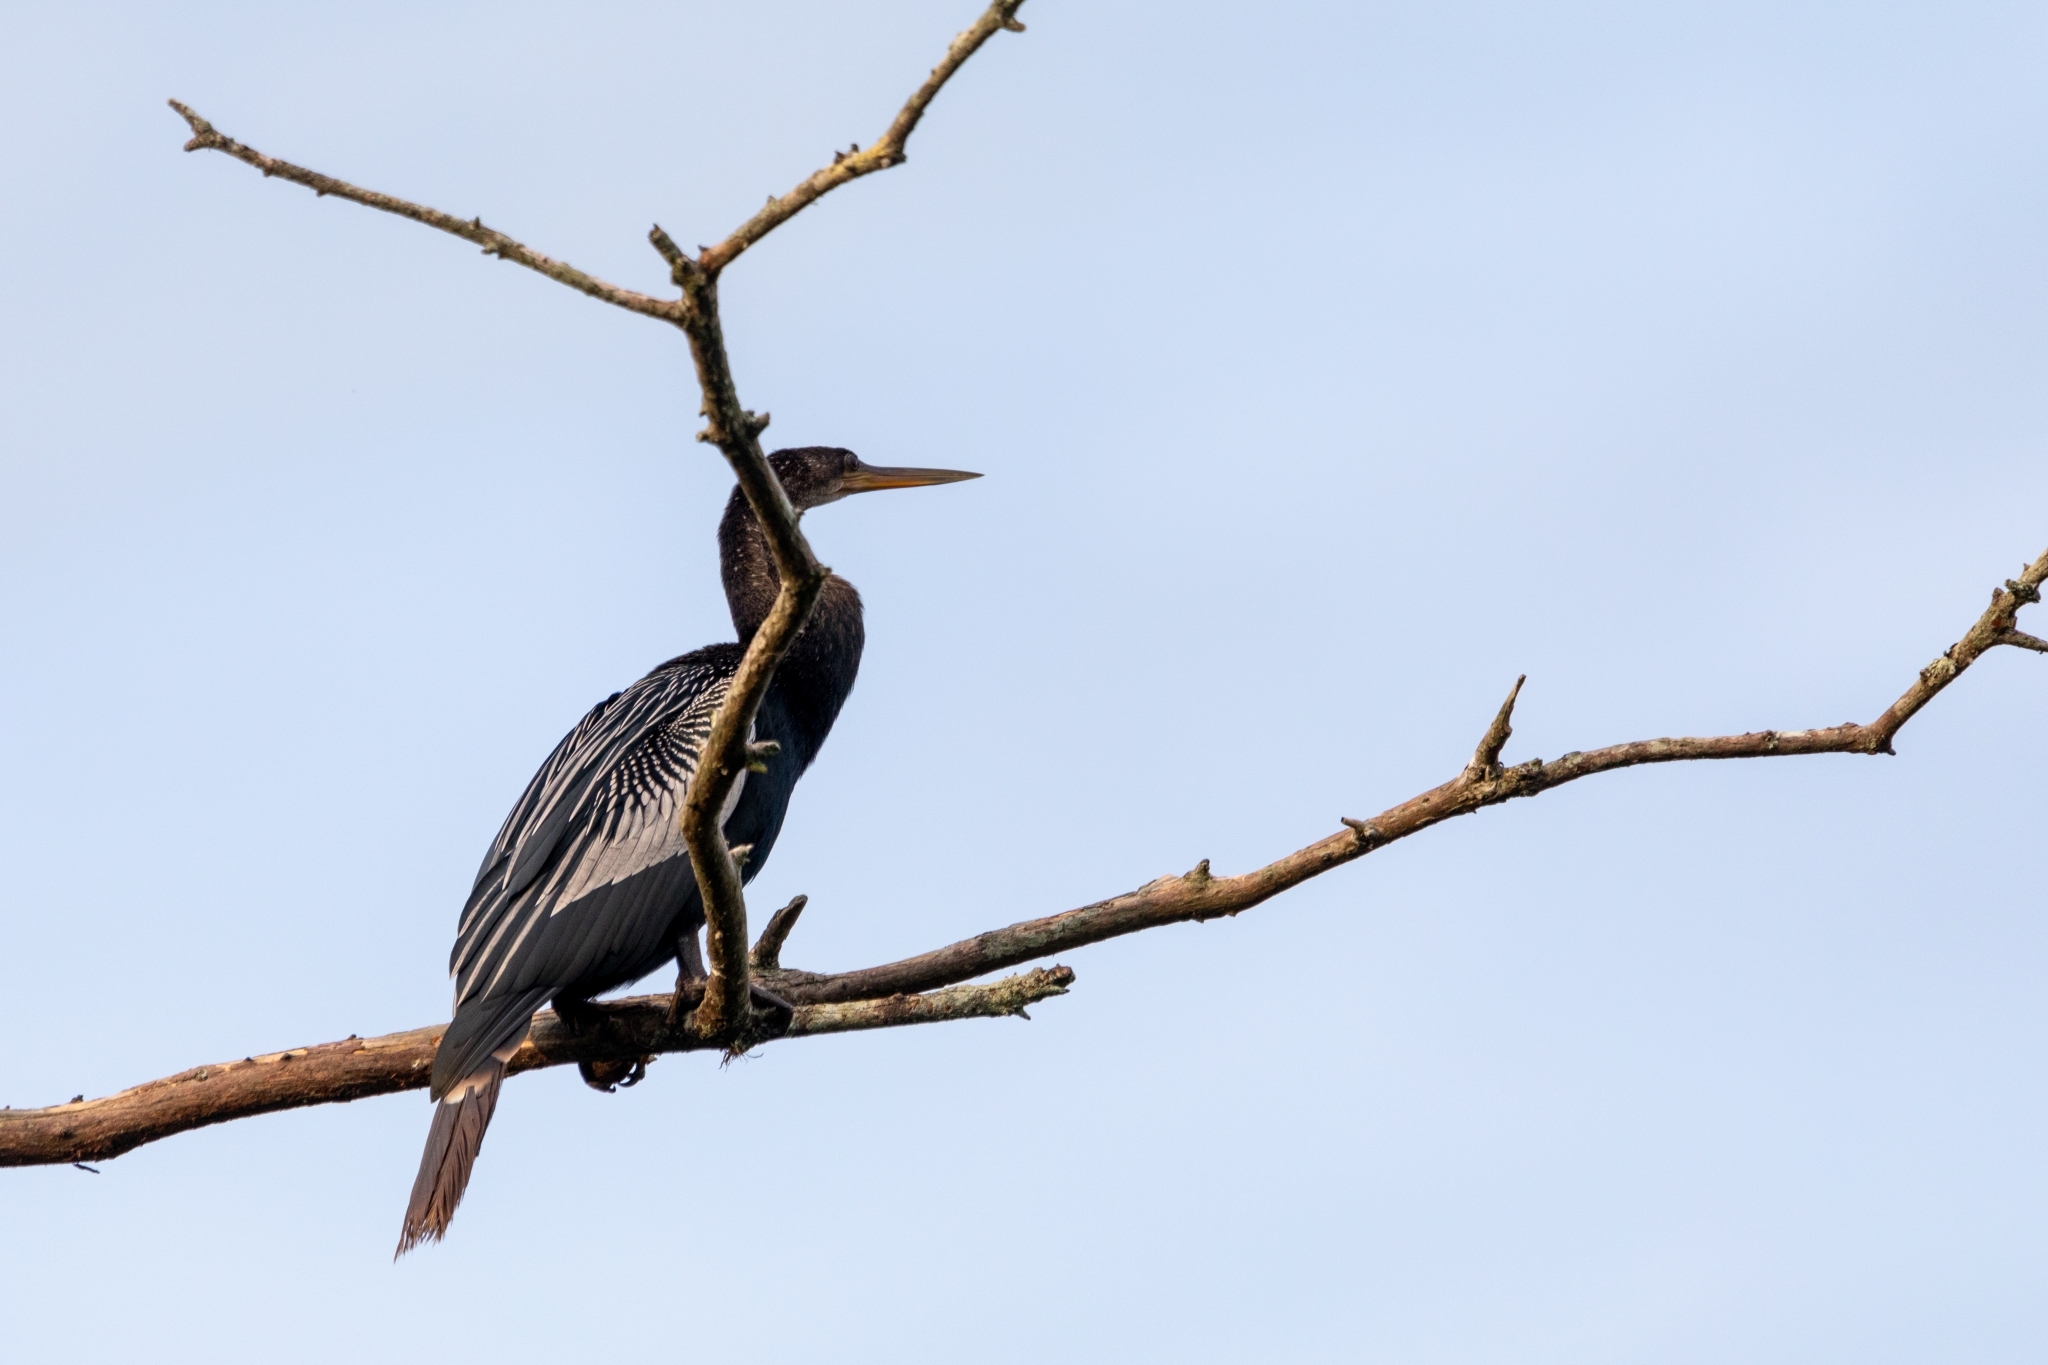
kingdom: Animalia
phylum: Chordata
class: Aves
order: Suliformes
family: Anhingidae
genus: Anhinga
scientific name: Anhinga anhinga
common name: Anhinga
